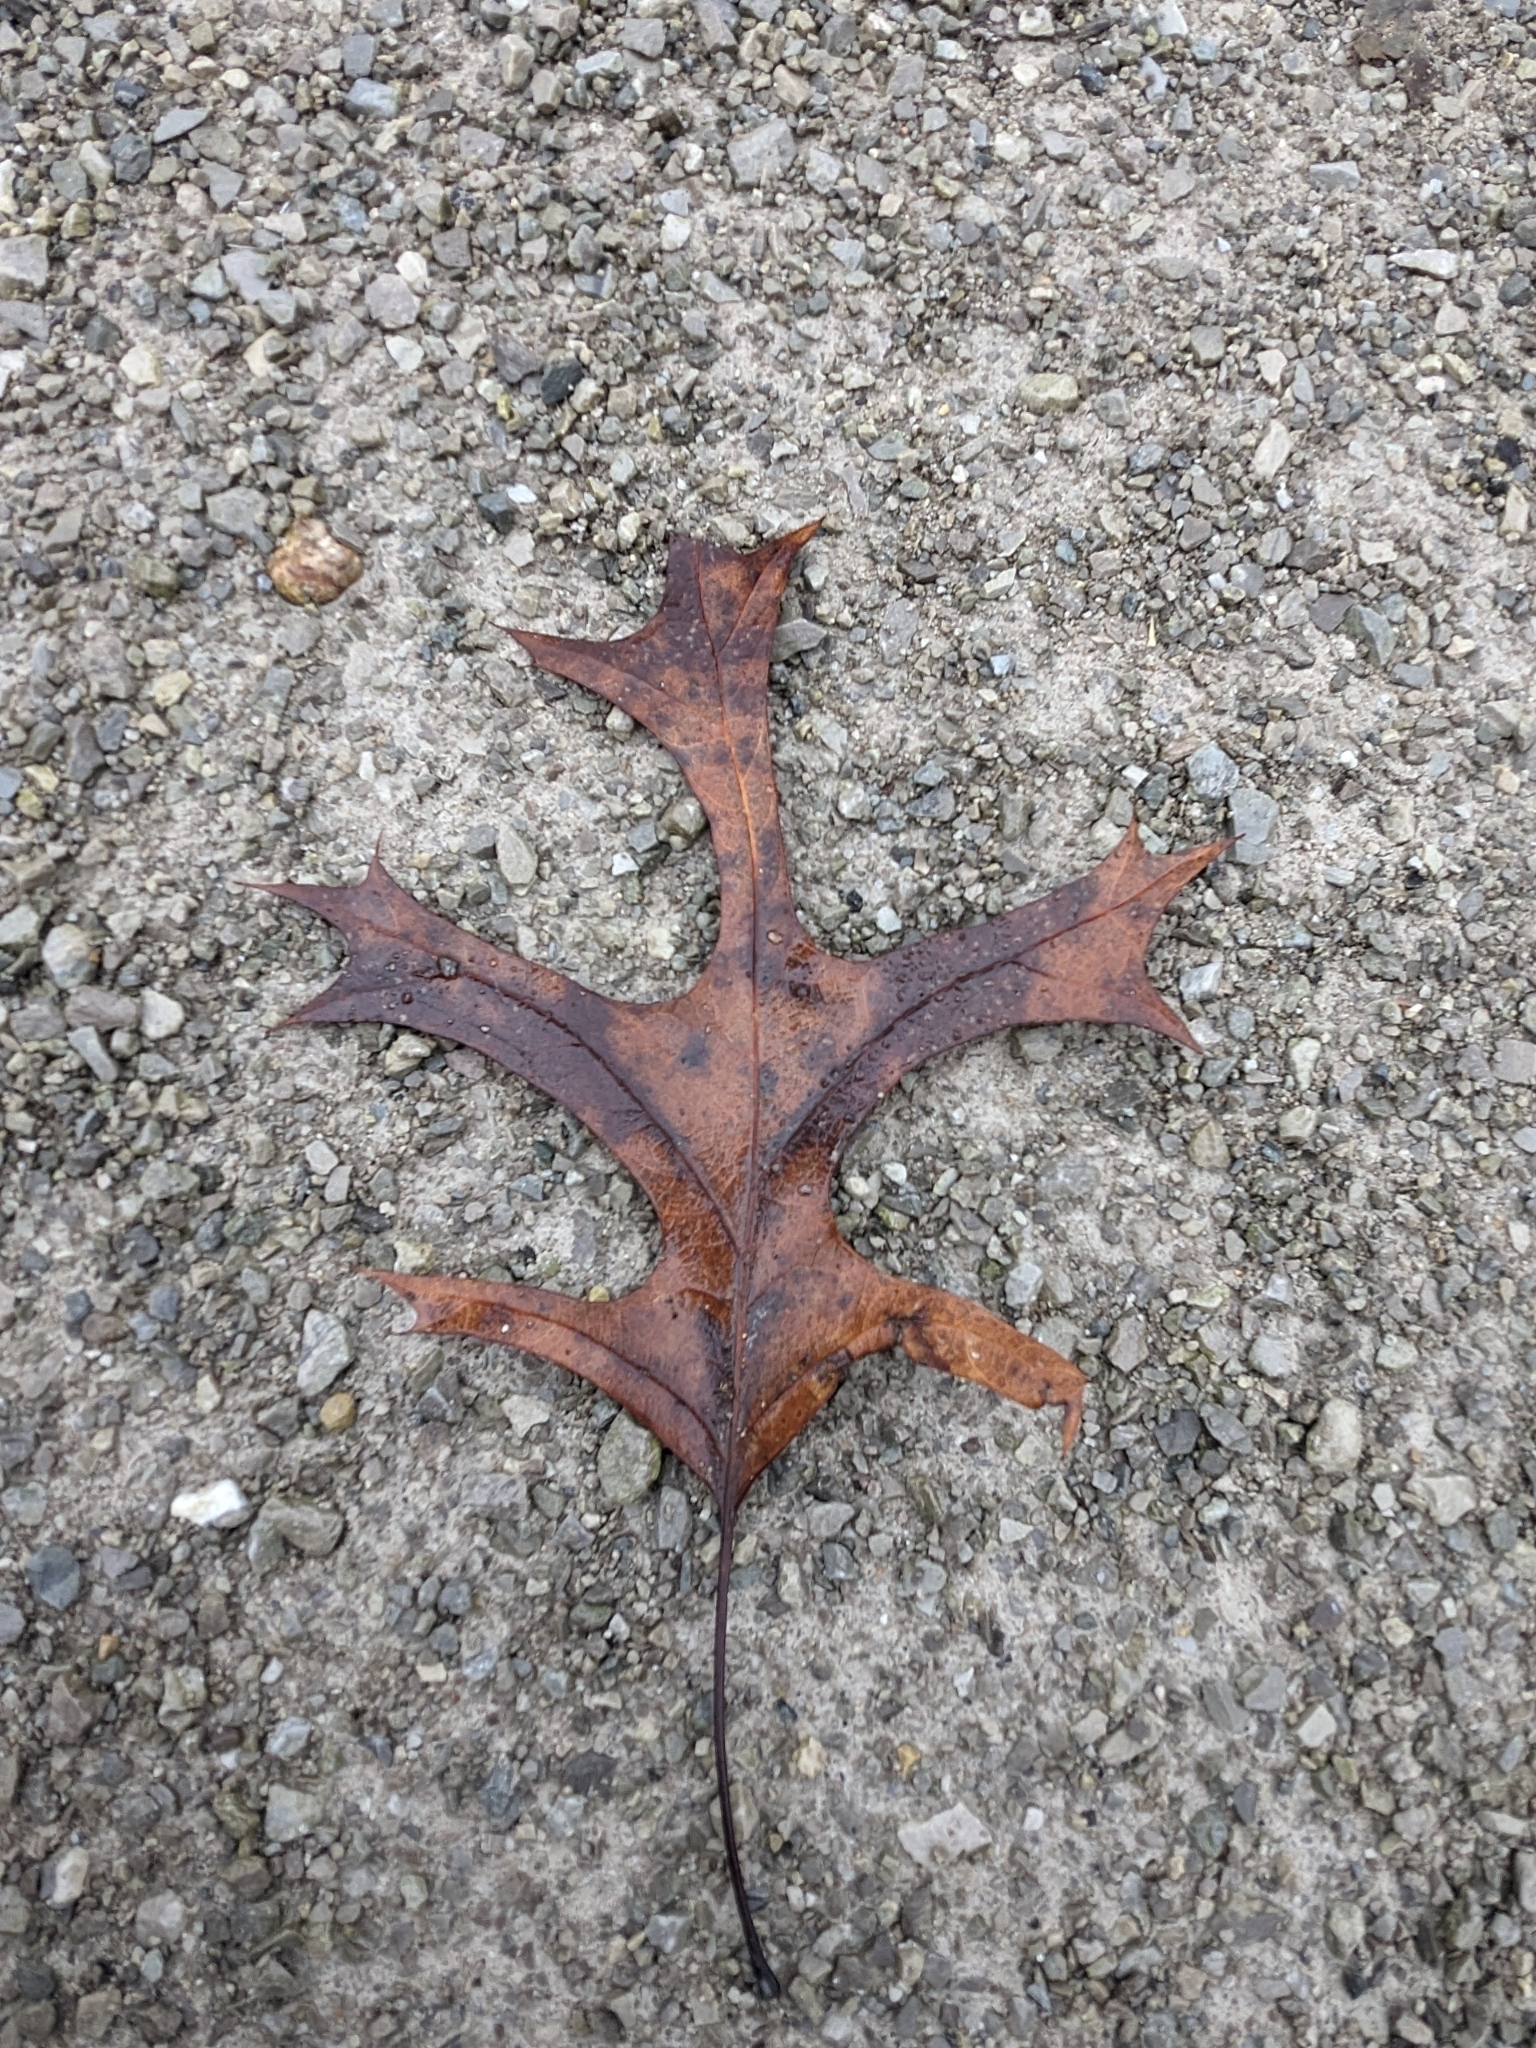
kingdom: Plantae
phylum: Tracheophyta
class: Magnoliopsida
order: Fagales
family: Fagaceae
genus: Quercus
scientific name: Quercus coccinea
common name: Scarlet oak
